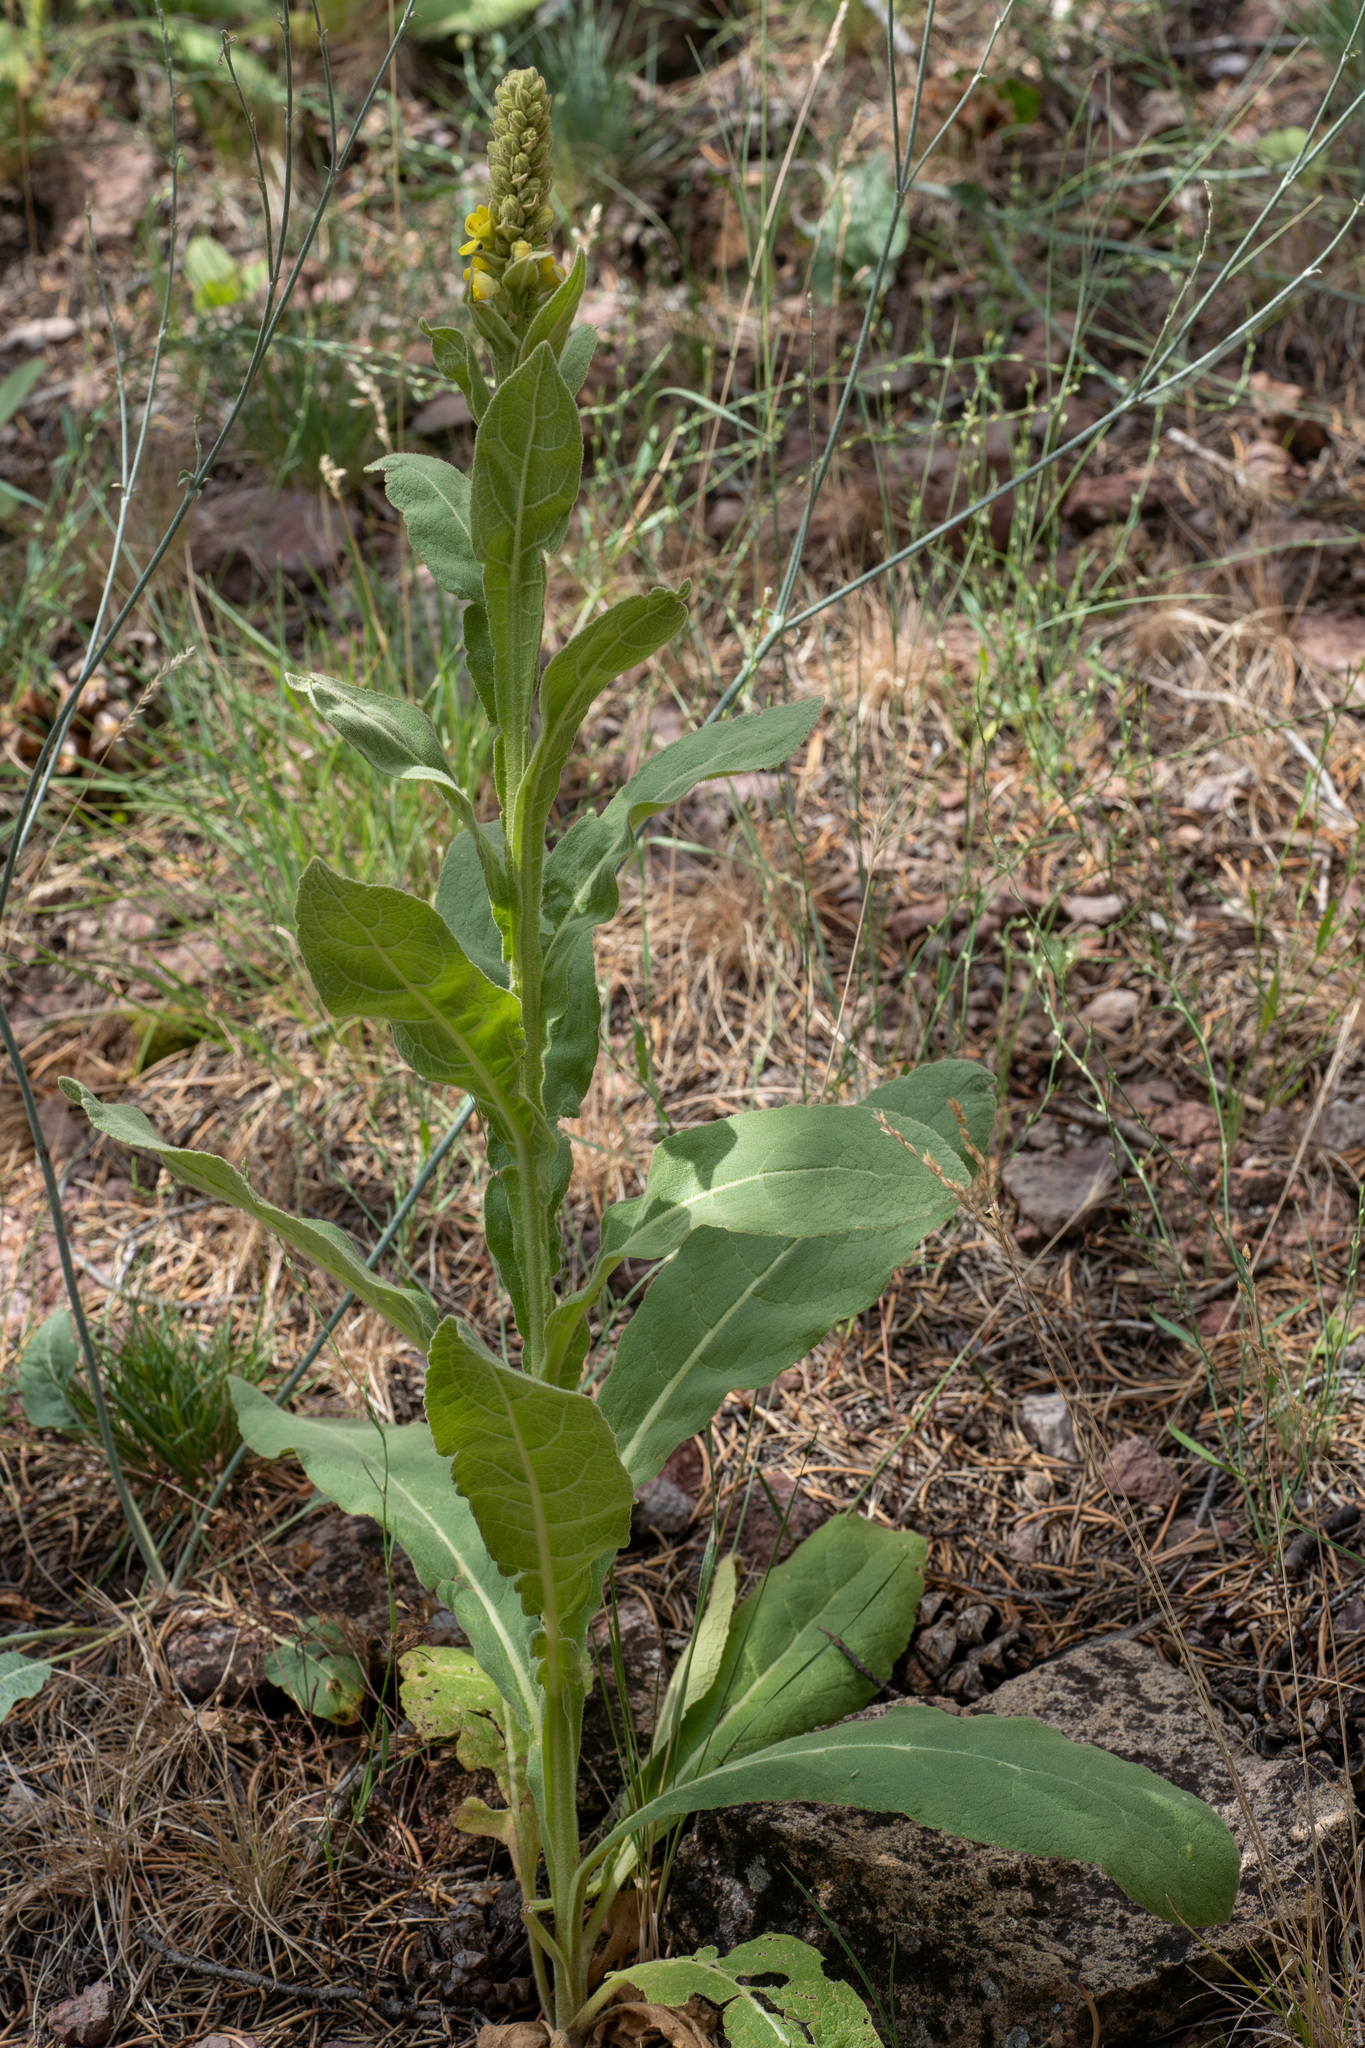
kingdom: Plantae
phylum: Tracheophyta
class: Magnoliopsida
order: Lamiales
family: Scrophulariaceae
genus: Verbascum
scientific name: Verbascum thapsus
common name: Common mullein
